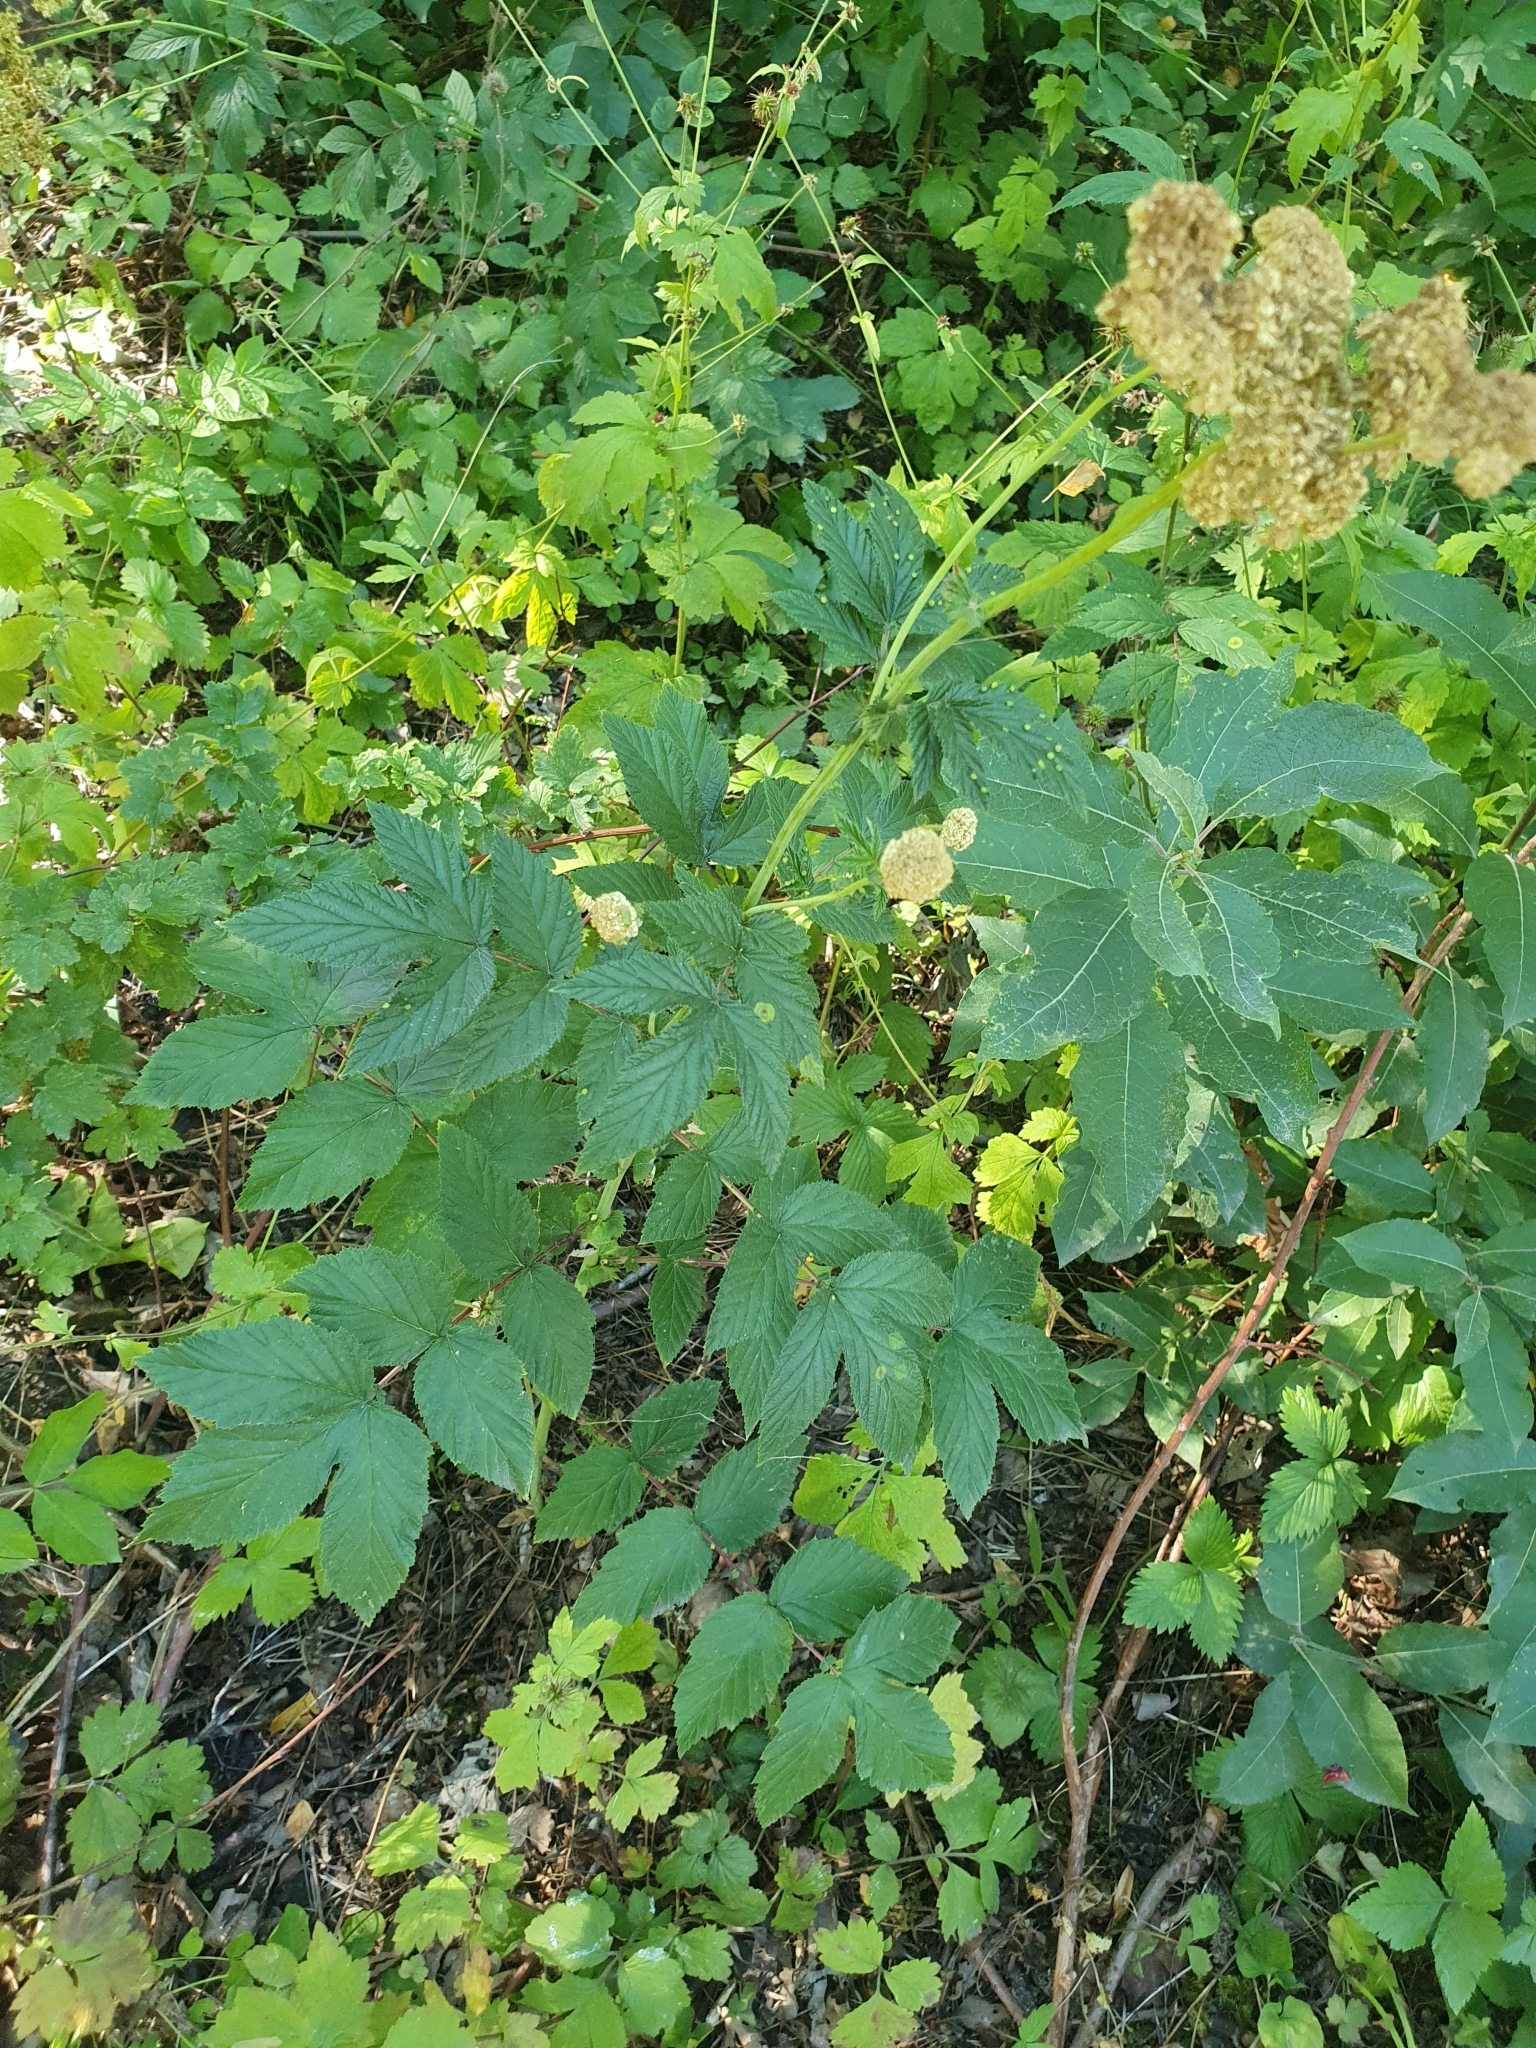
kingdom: Plantae
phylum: Tracheophyta
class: Magnoliopsida
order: Rosales
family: Rosaceae
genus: Filipendula
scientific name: Filipendula ulmaria
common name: Meadowsweet
